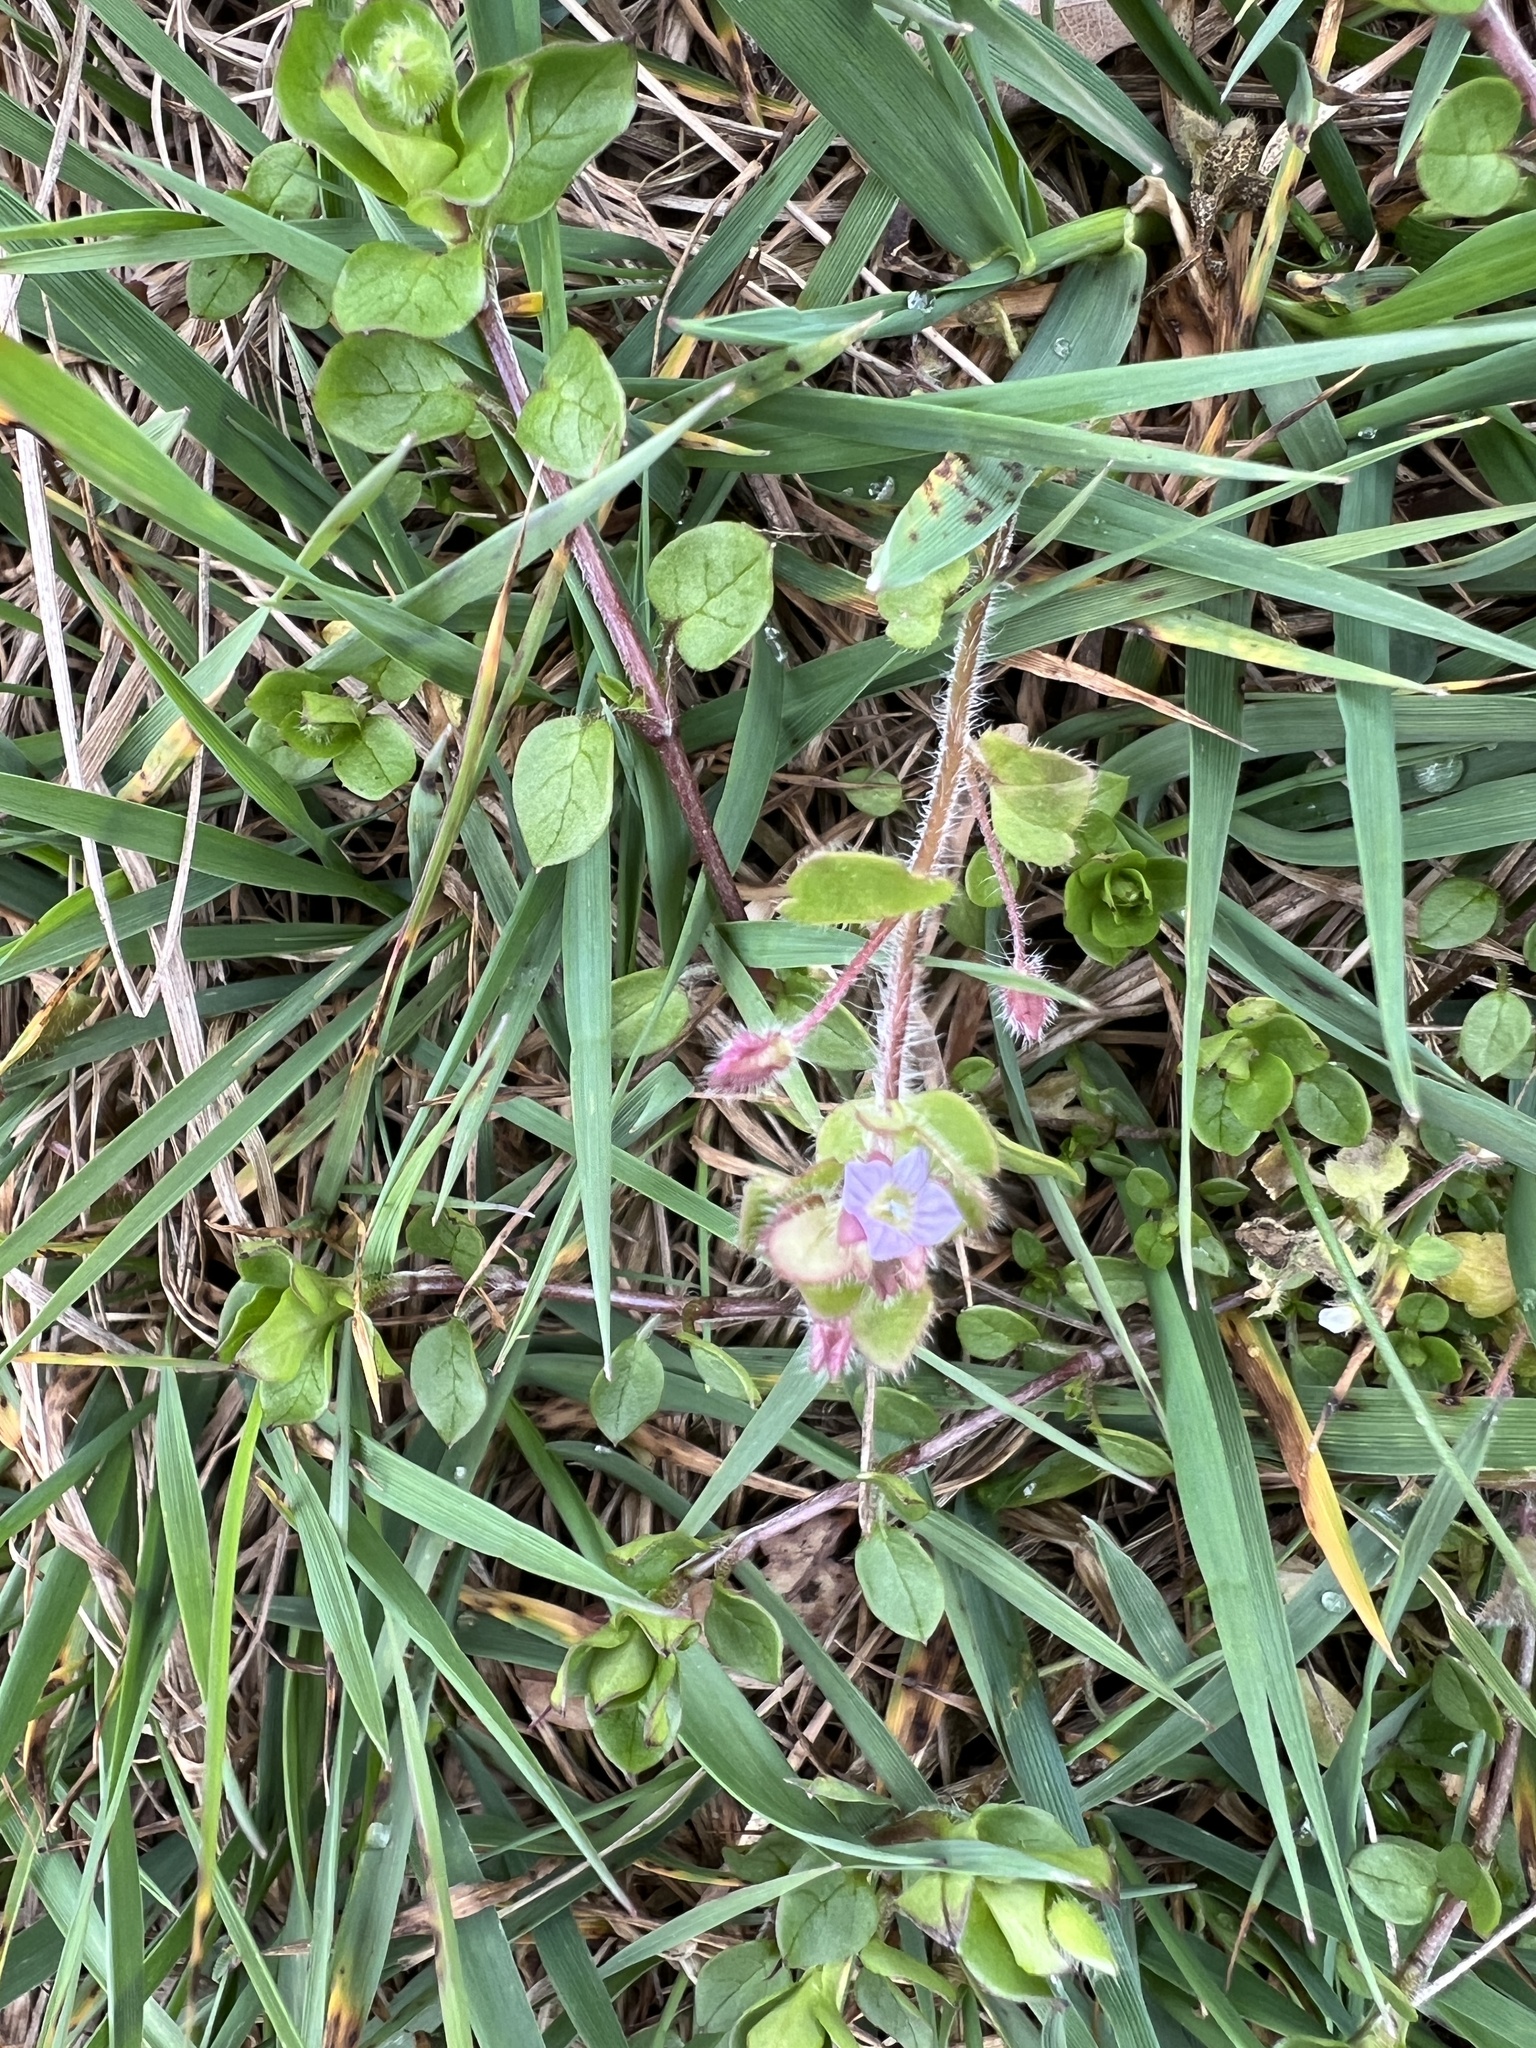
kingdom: Plantae
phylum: Tracheophyta
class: Magnoliopsida
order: Lamiales
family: Plantaginaceae
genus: Veronica
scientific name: Veronica sublobata
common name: False ivy-leaved speedwell
